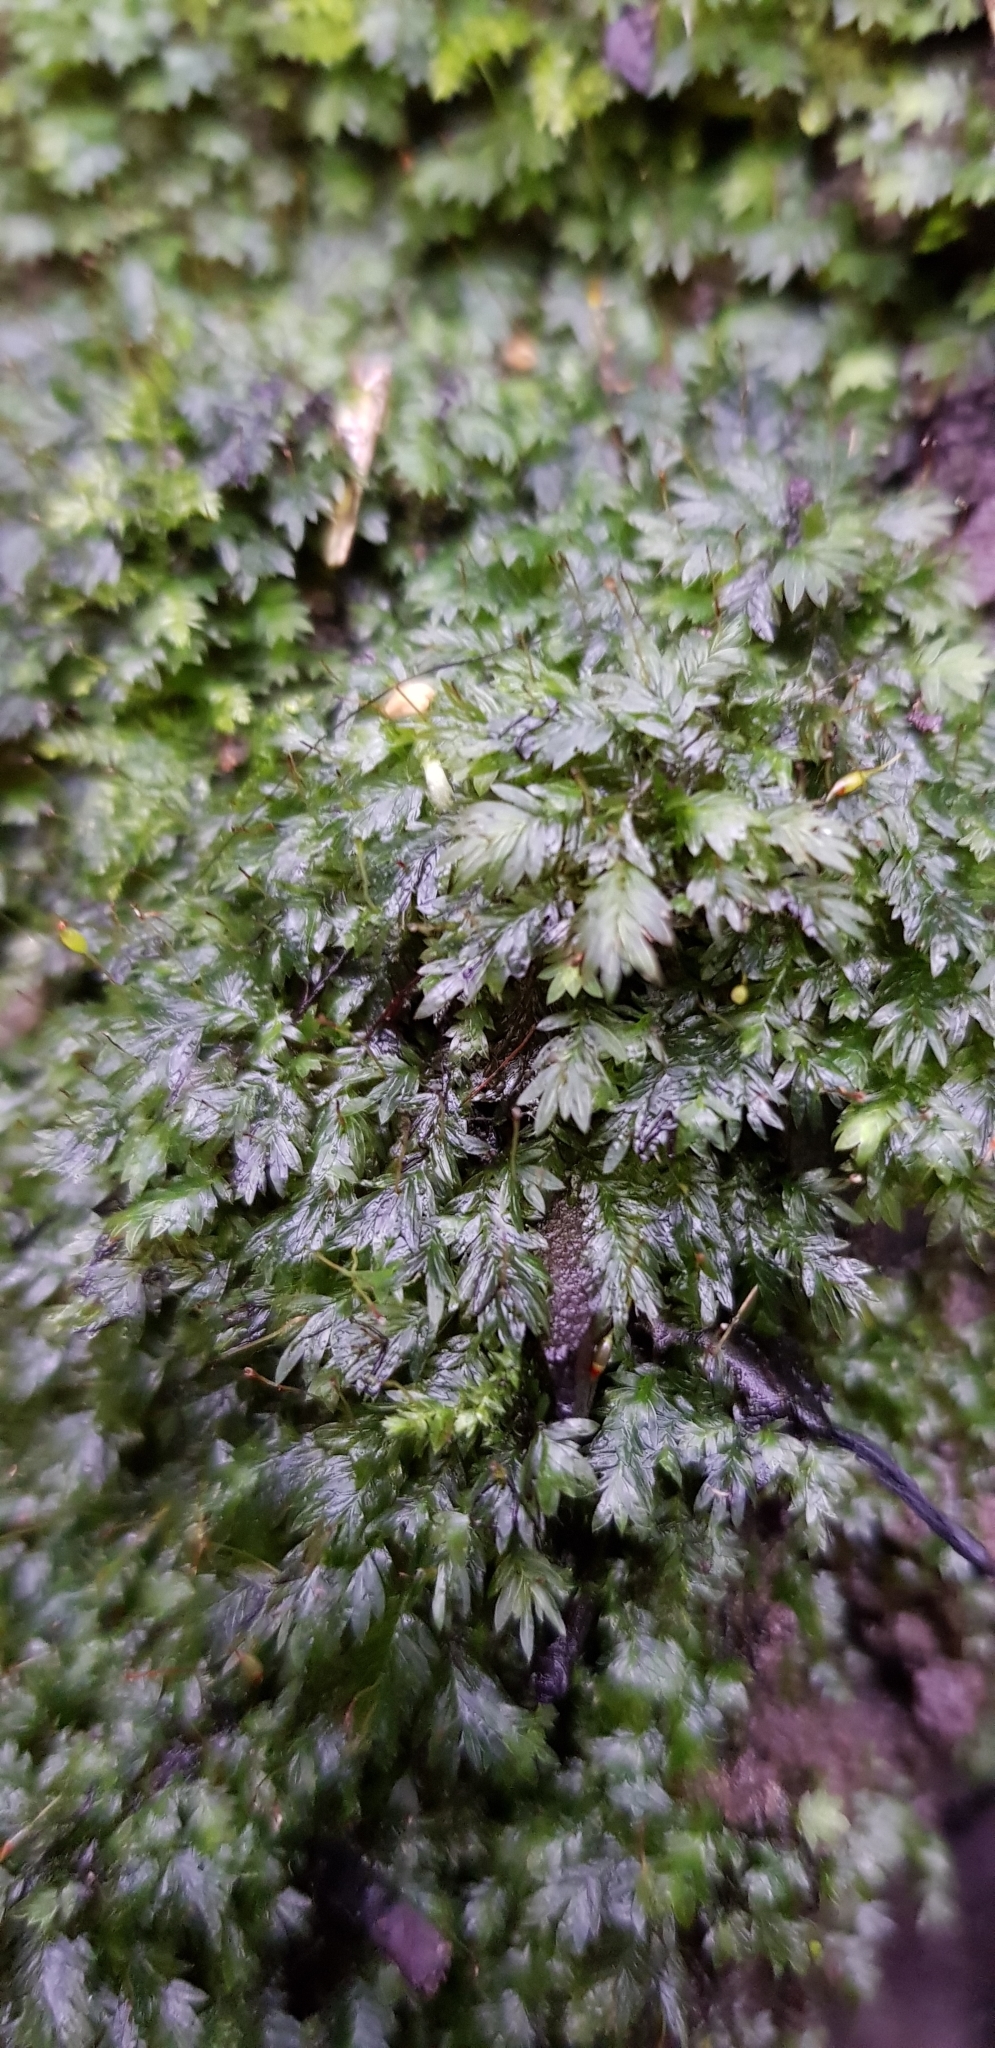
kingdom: Plantae
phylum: Bryophyta
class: Bryopsida
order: Dicranales
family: Fissidentaceae
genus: Fissidens
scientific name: Fissidens bryoides
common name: Lesser pocket moss
